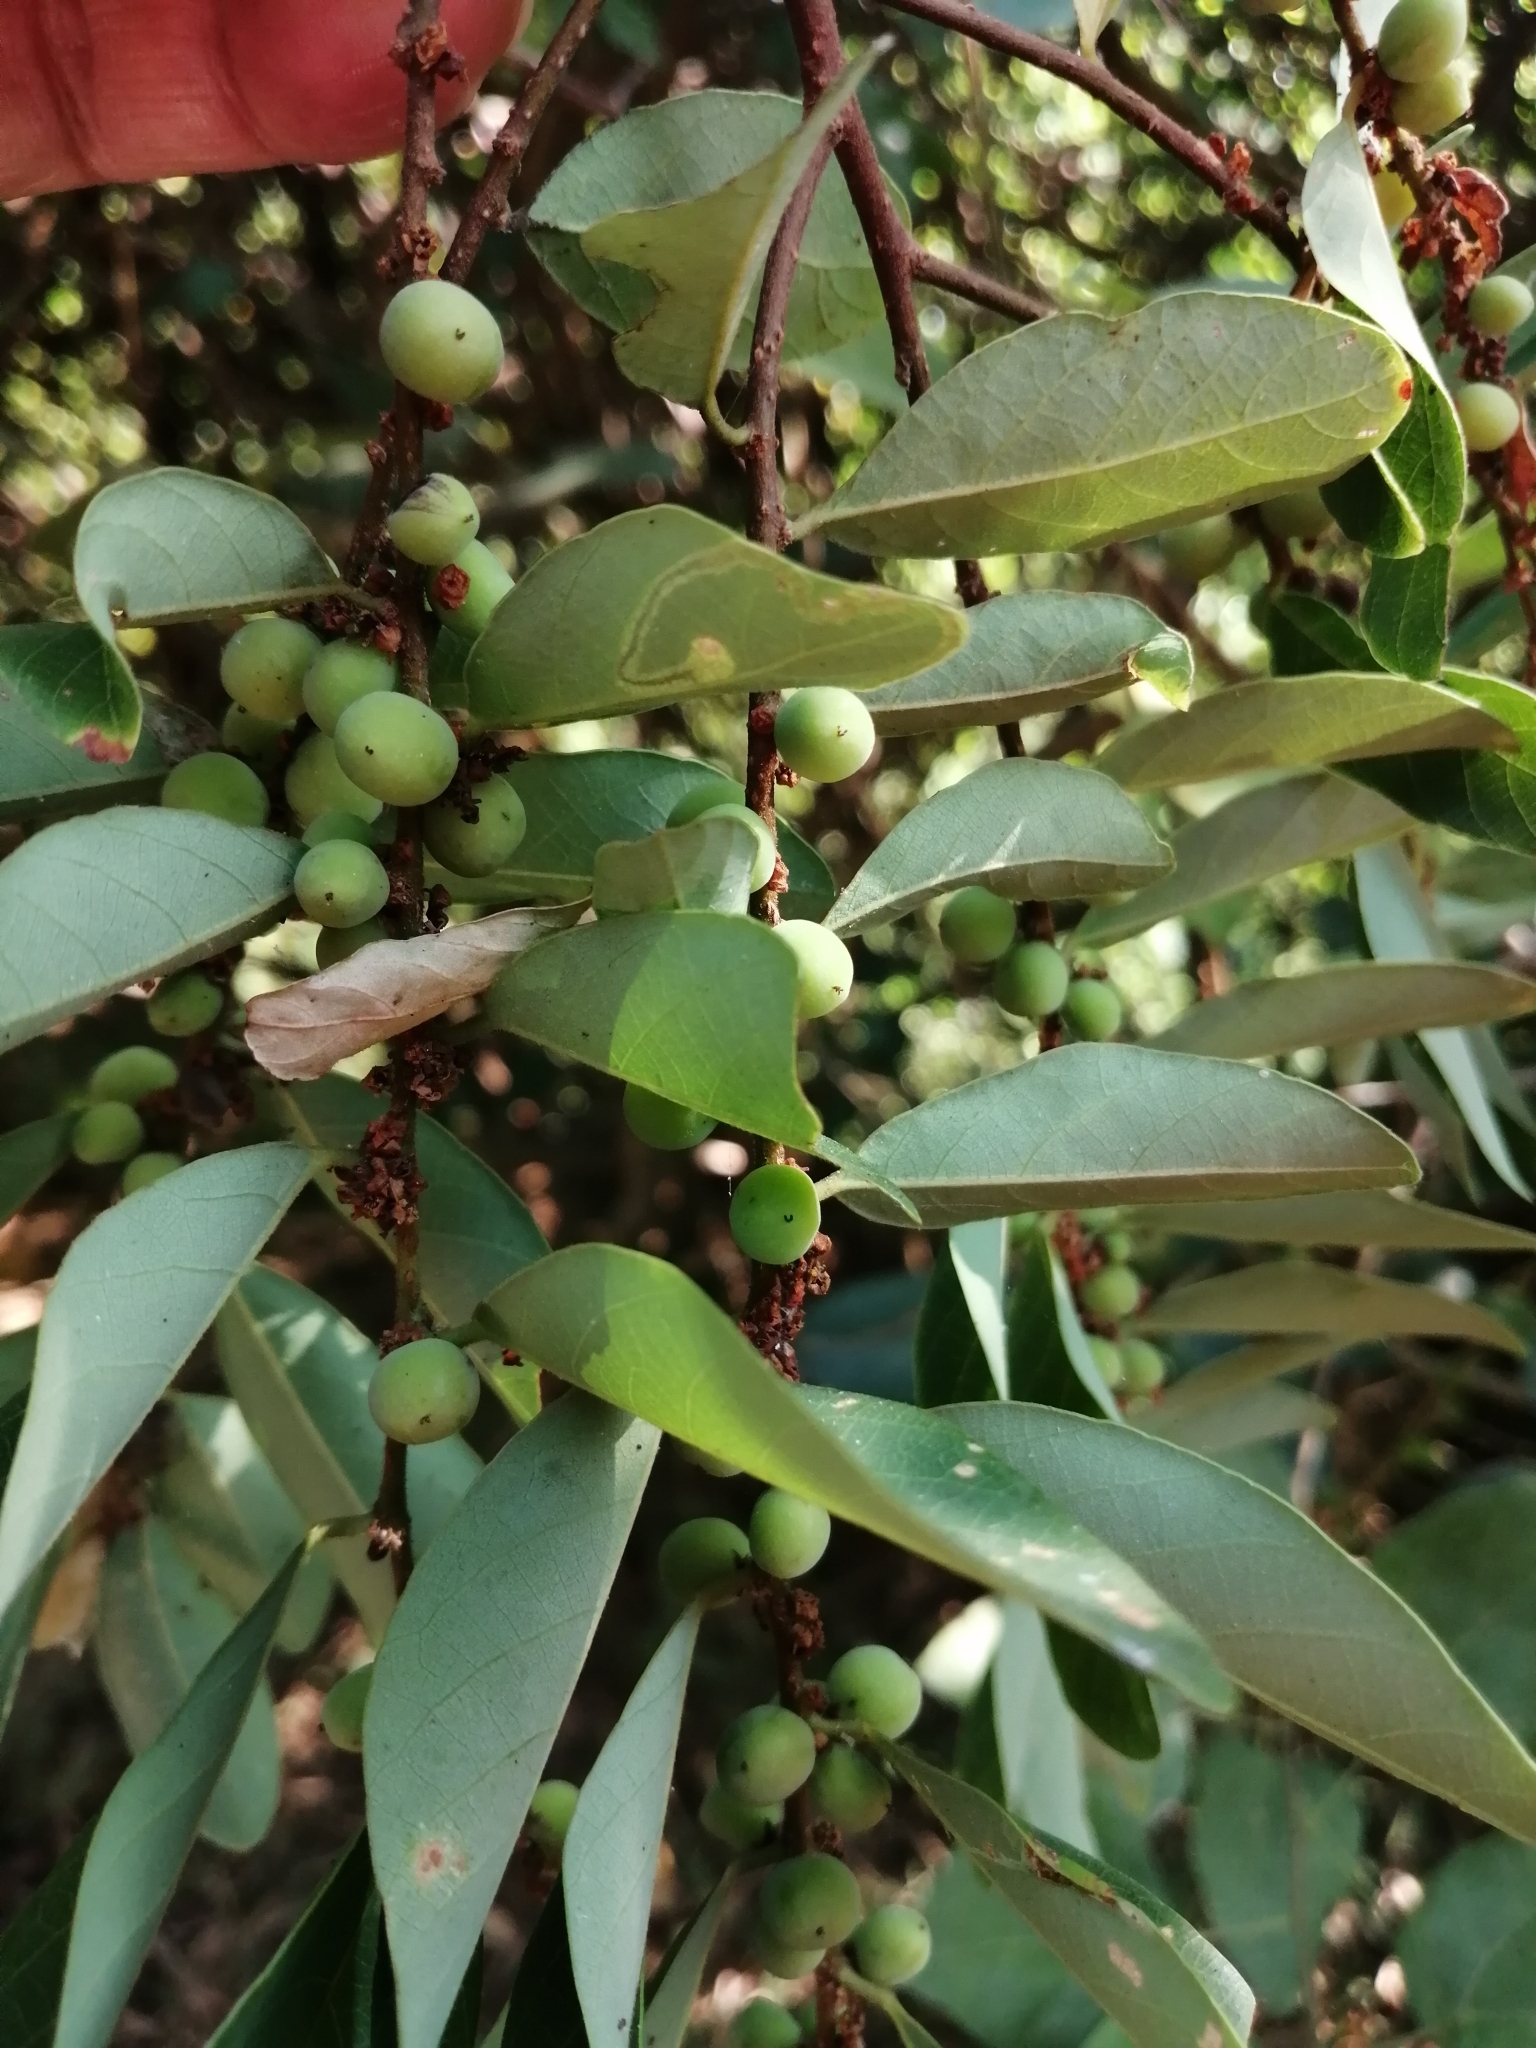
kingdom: Plantae
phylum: Tracheophyta
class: Magnoliopsida
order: Malpighiales
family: Phyllanthaceae
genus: Bridelia
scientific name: Bridelia tomentosa
